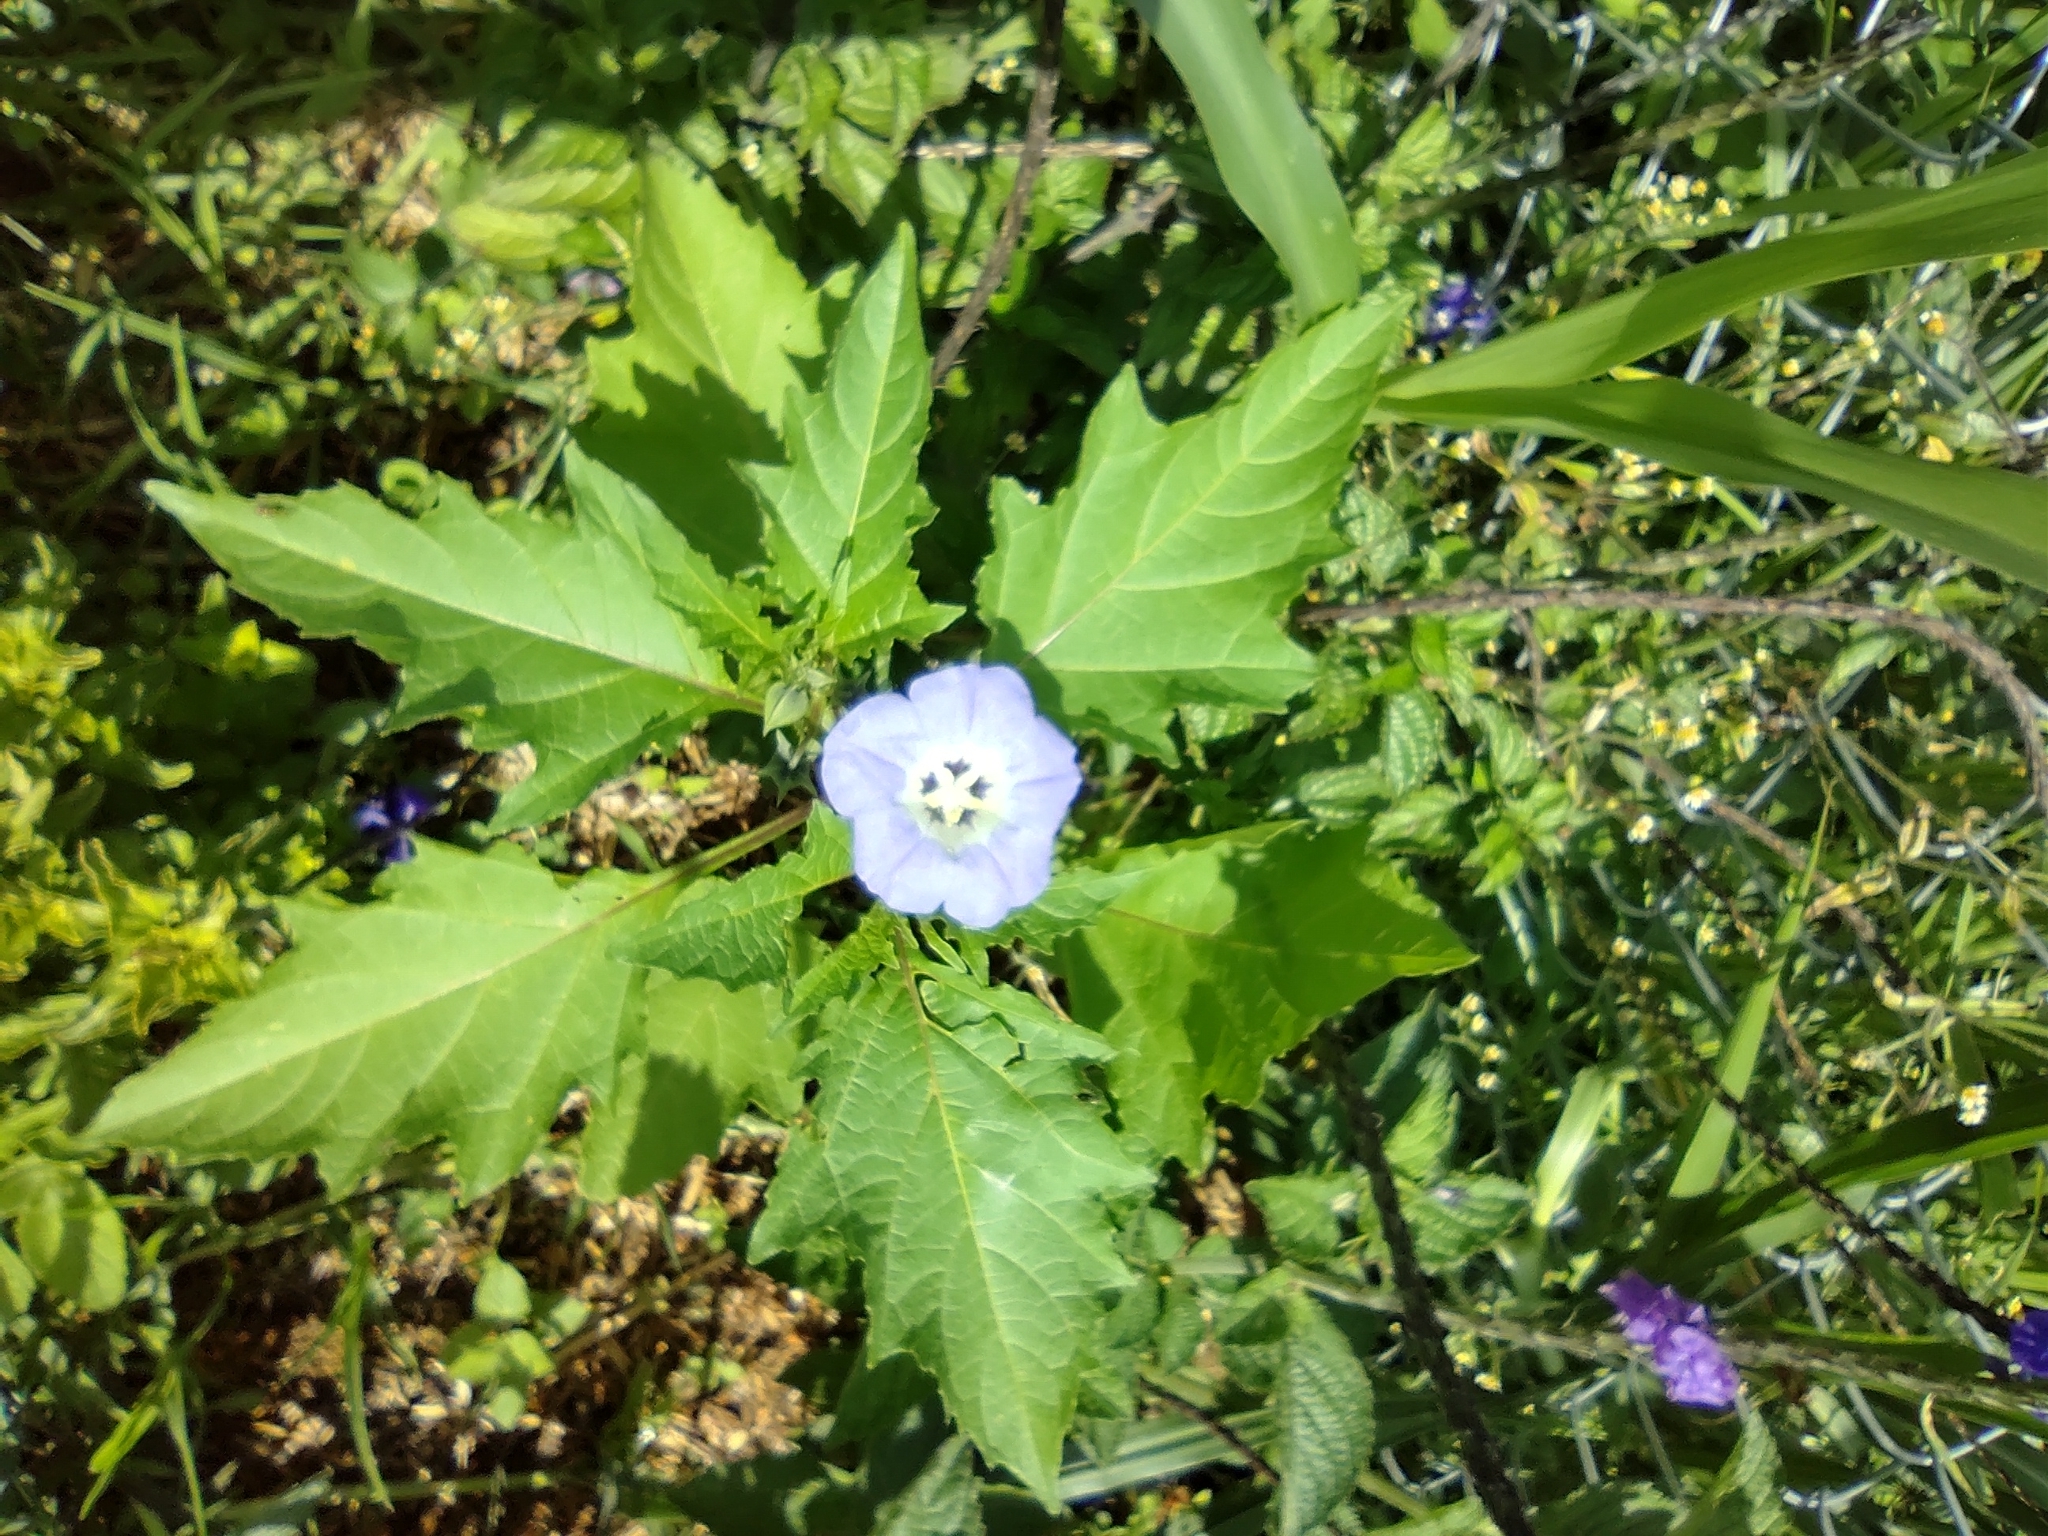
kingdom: Plantae
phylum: Tracheophyta
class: Magnoliopsida
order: Solanales
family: Solanaceae
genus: Nicandra
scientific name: Nicandra physalodes
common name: Apple-of-peru
